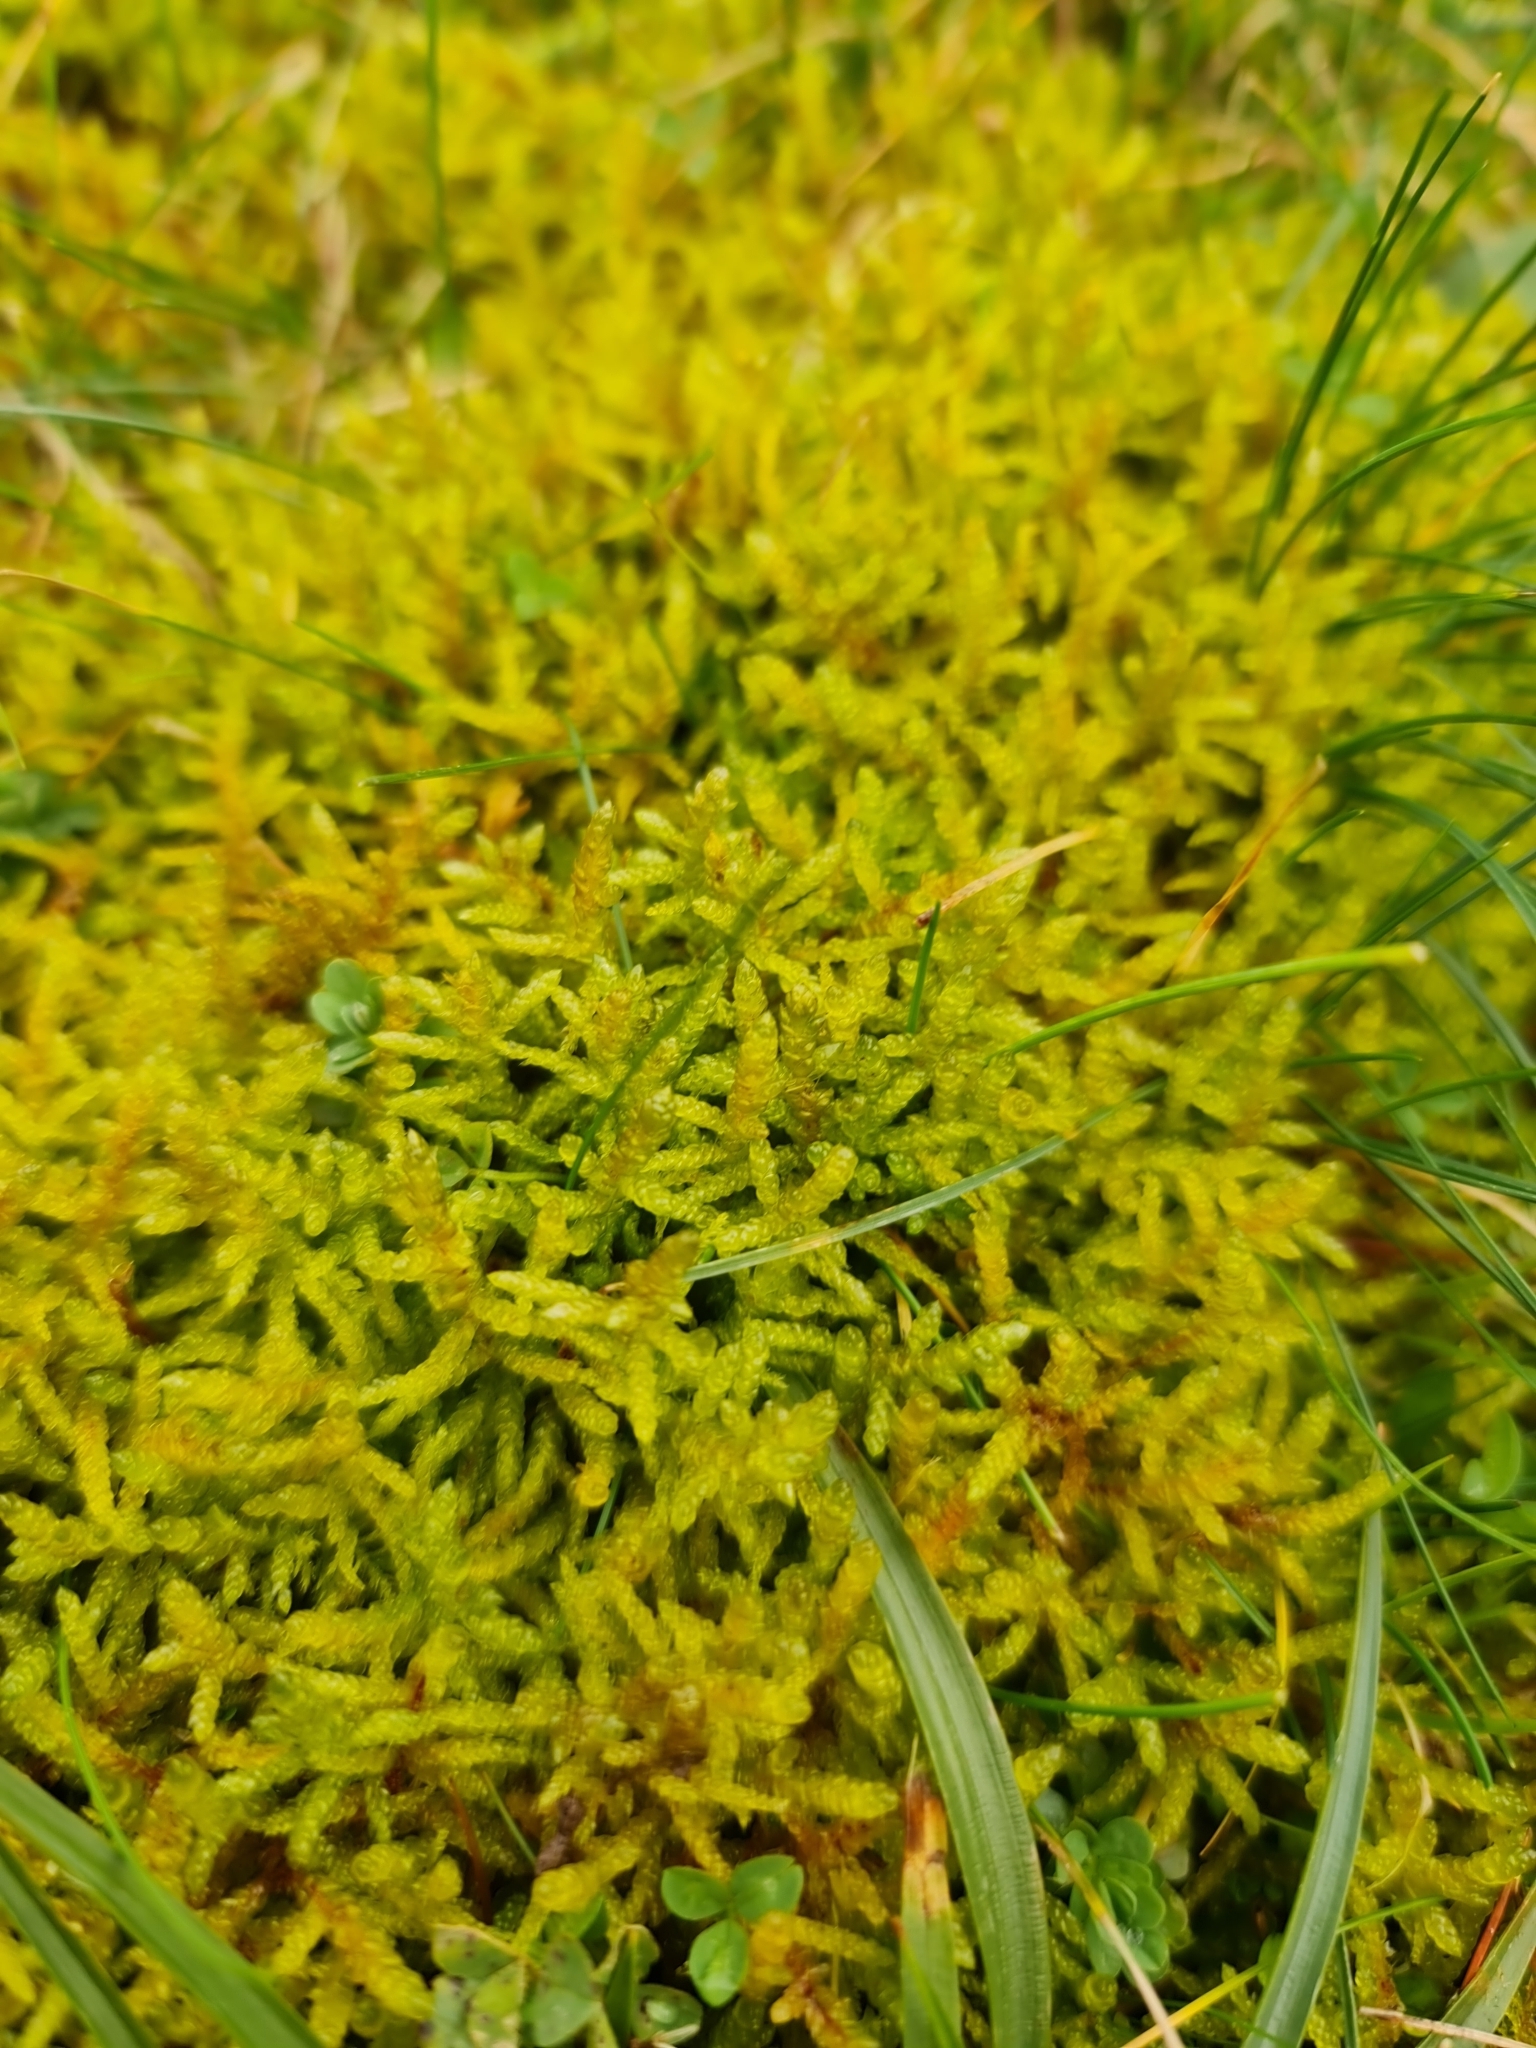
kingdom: Plantae
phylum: Bryophyta
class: Bryopsida
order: Hypnales
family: Brachytheciaceae
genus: Pseudoscleropodium
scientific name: Pseudoscleropodium purum
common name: Neat feather-moss
